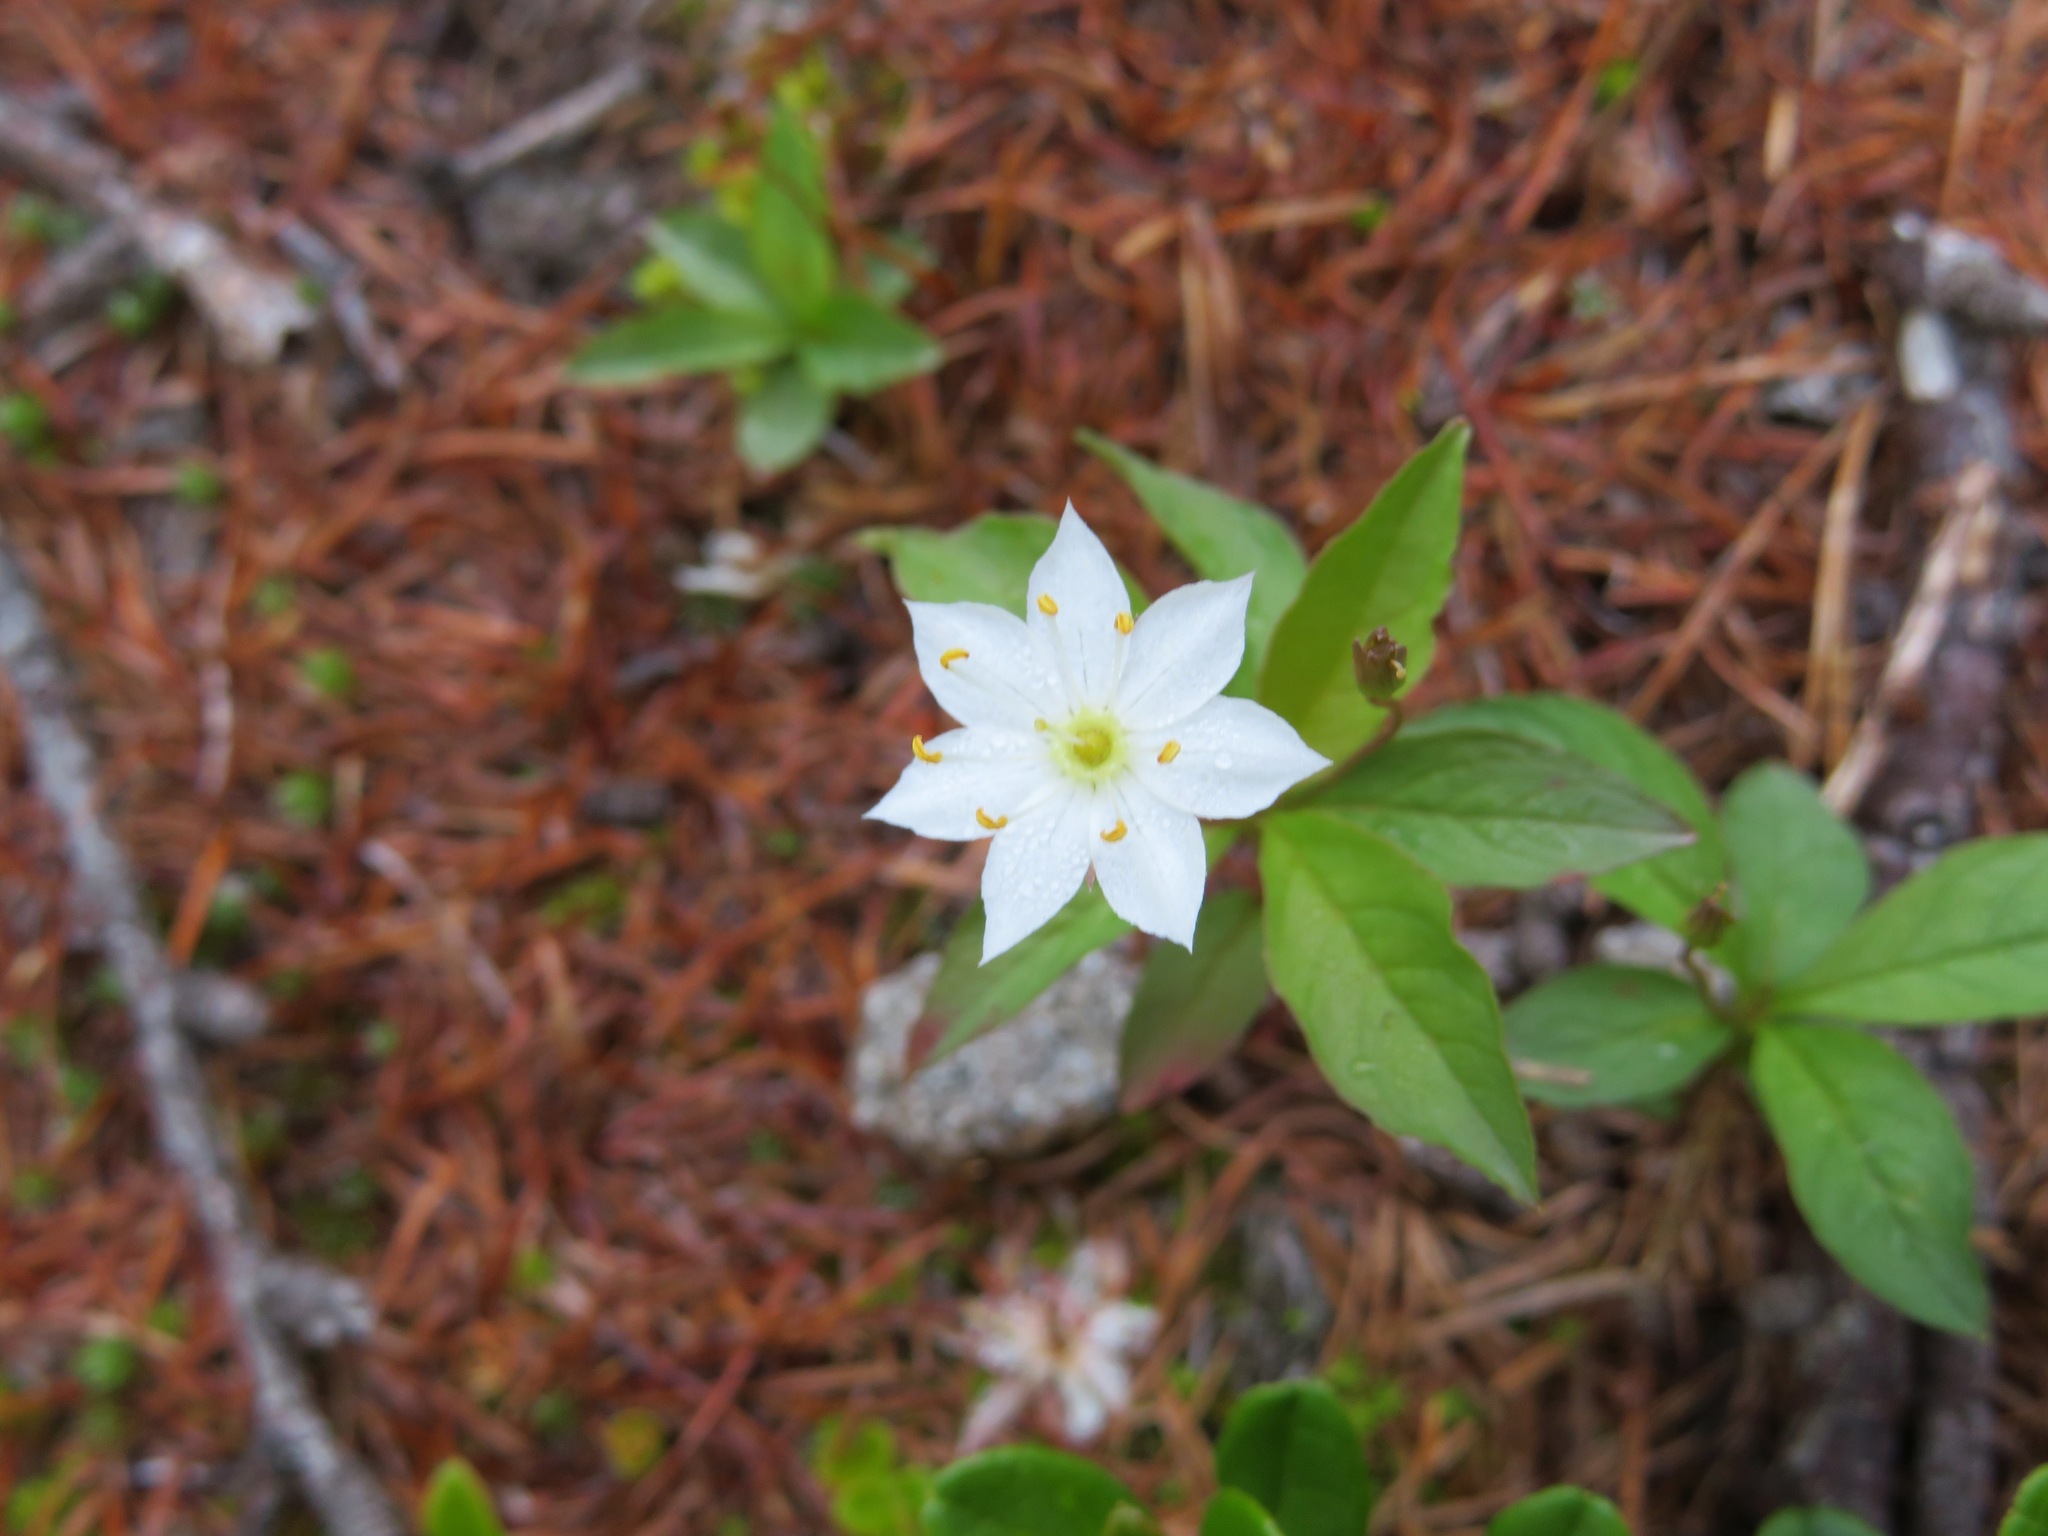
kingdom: Plantae
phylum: Tracheophyta
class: Magnoliopsida
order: Ericales
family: Primulaceae
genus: Lysimachia
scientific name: Lysimachia europaea
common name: Arctic starflower
